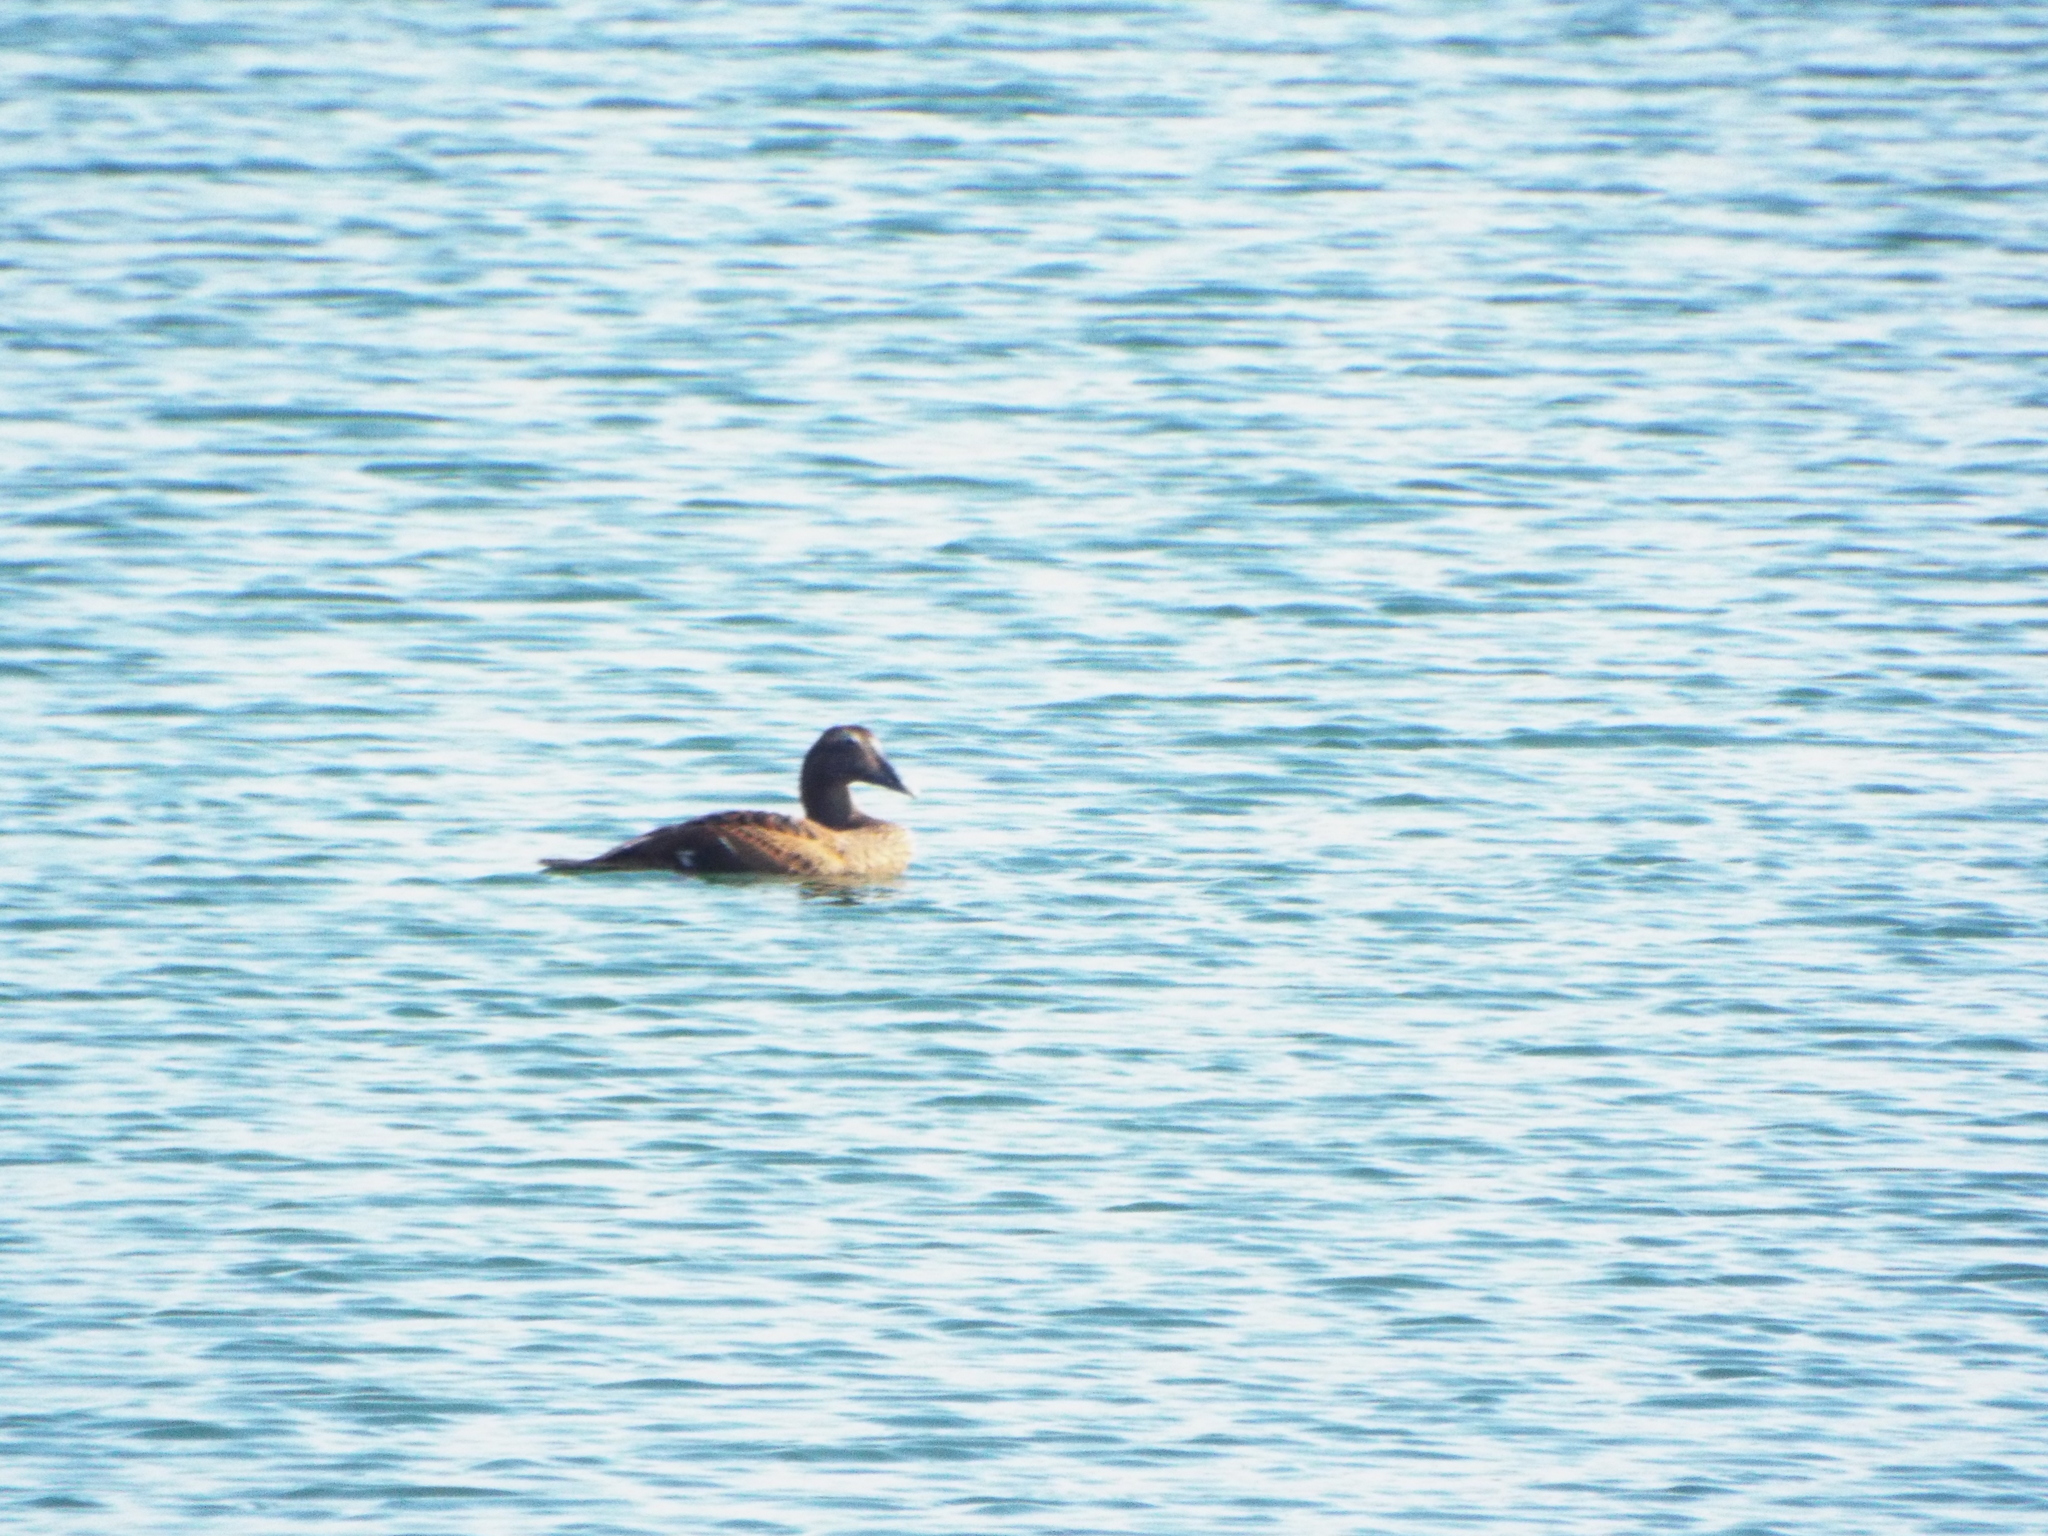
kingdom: Animalia
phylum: Chordata
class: Aves
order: Anseriformes
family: Anatidae
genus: Somateria
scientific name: Somateria mollissima
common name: Common eider
